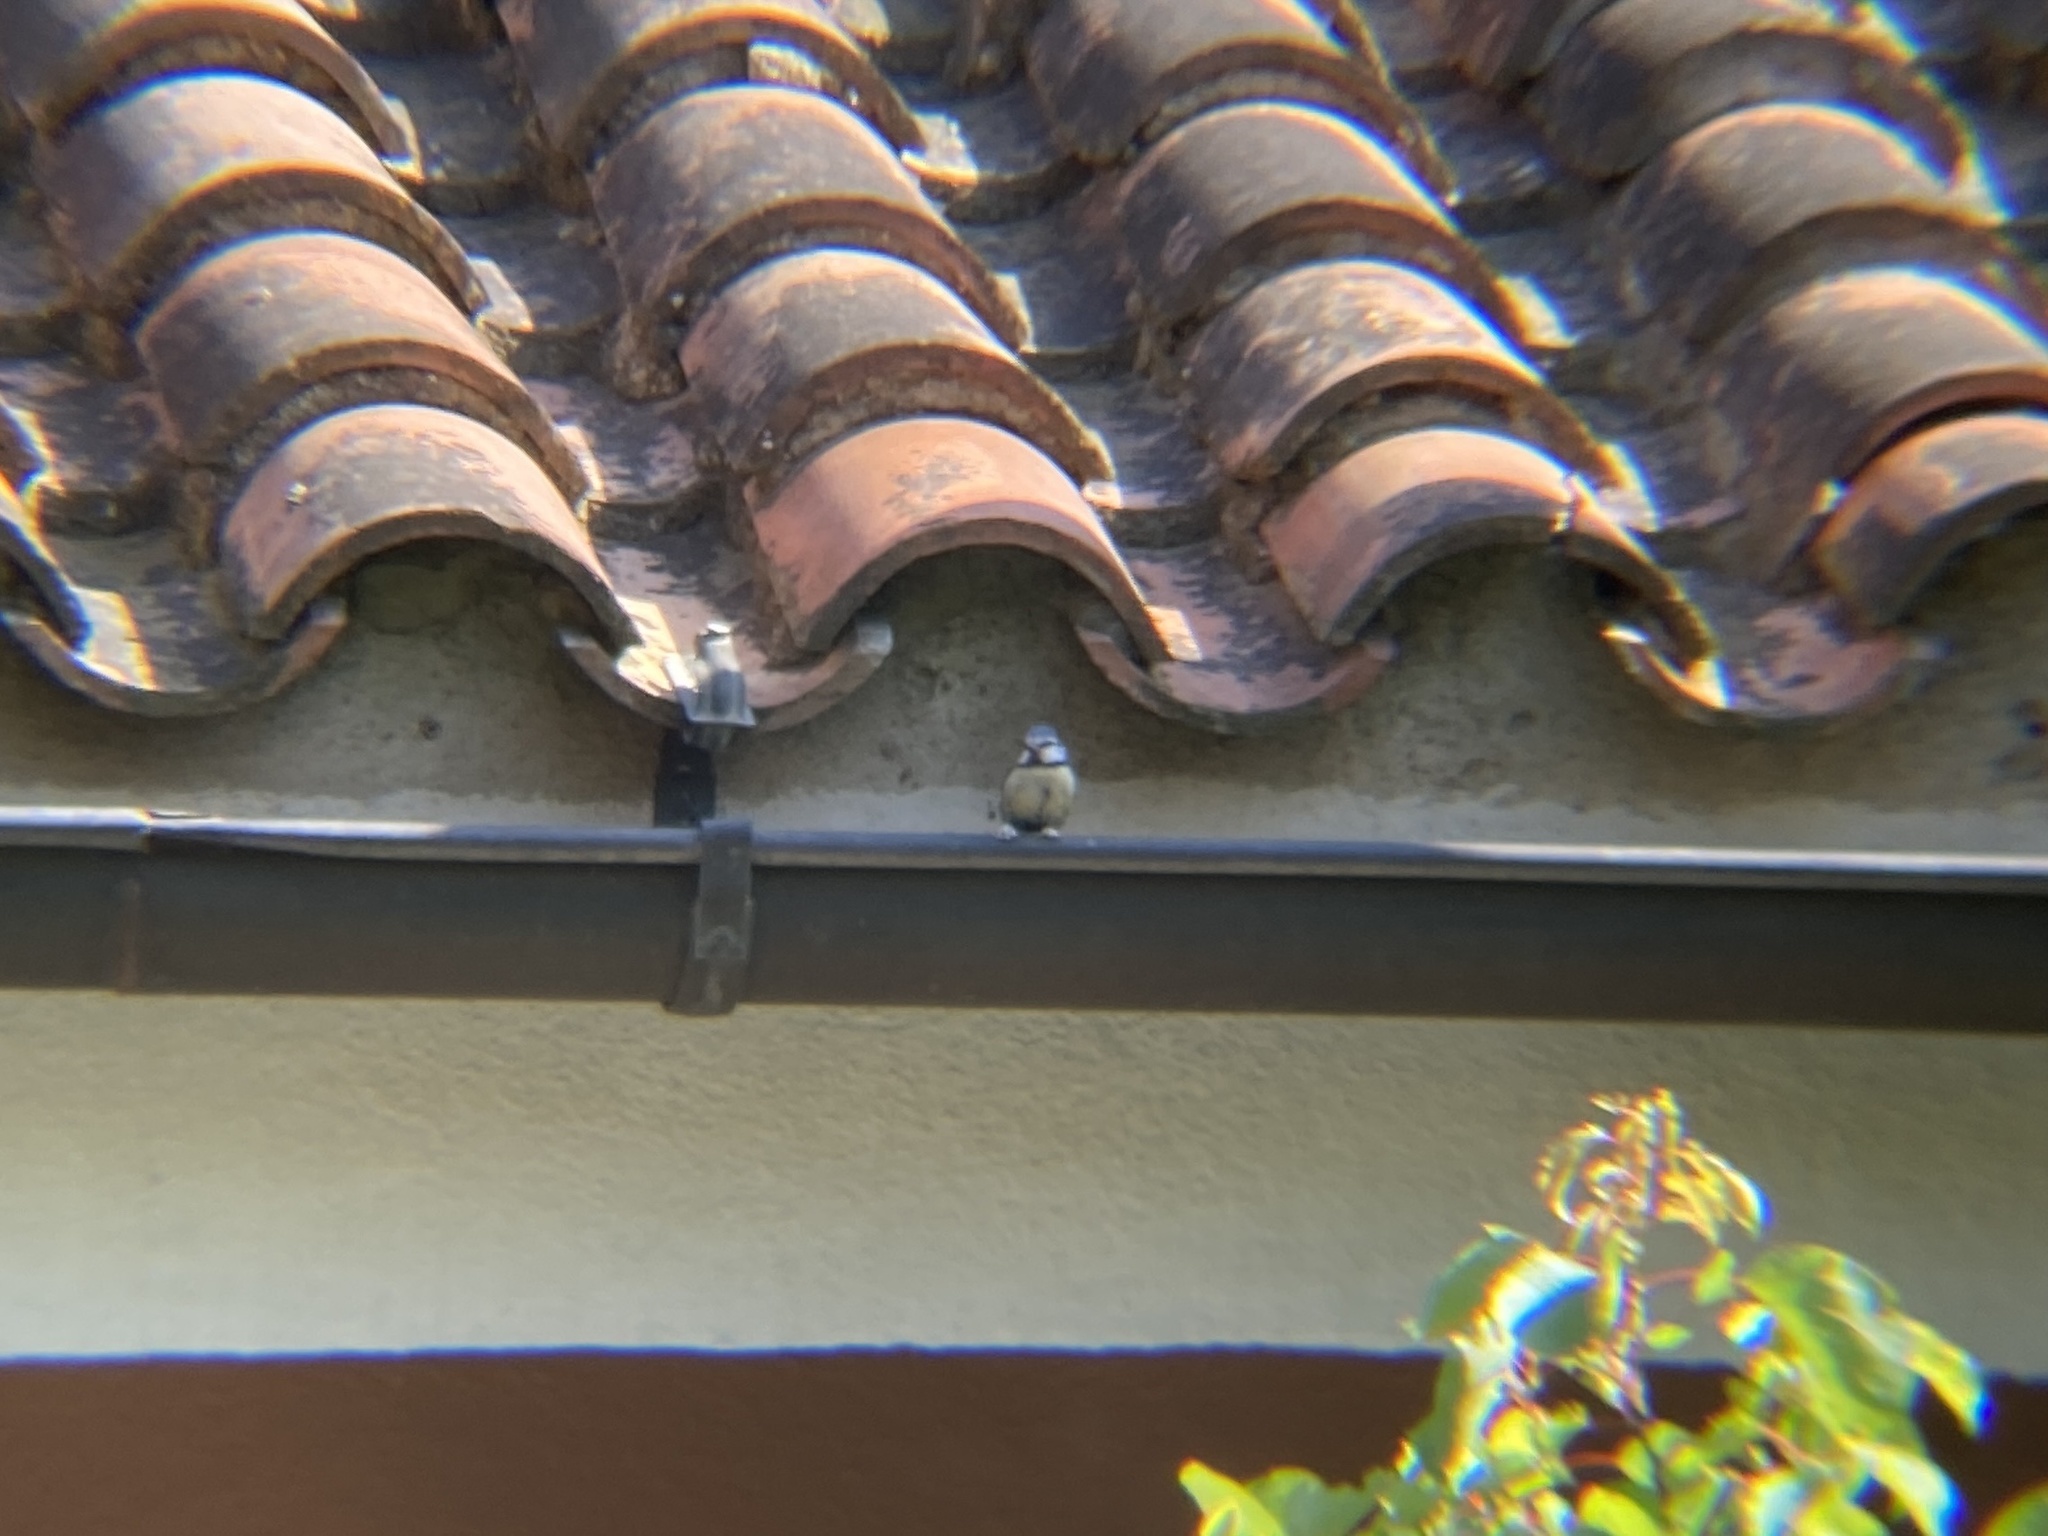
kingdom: Animalia
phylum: Chordata
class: Aves
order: Passeriformes
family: Paridae
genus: Cyanistes
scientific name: Cyanistes caeruleus
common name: Eurasian blue tit
